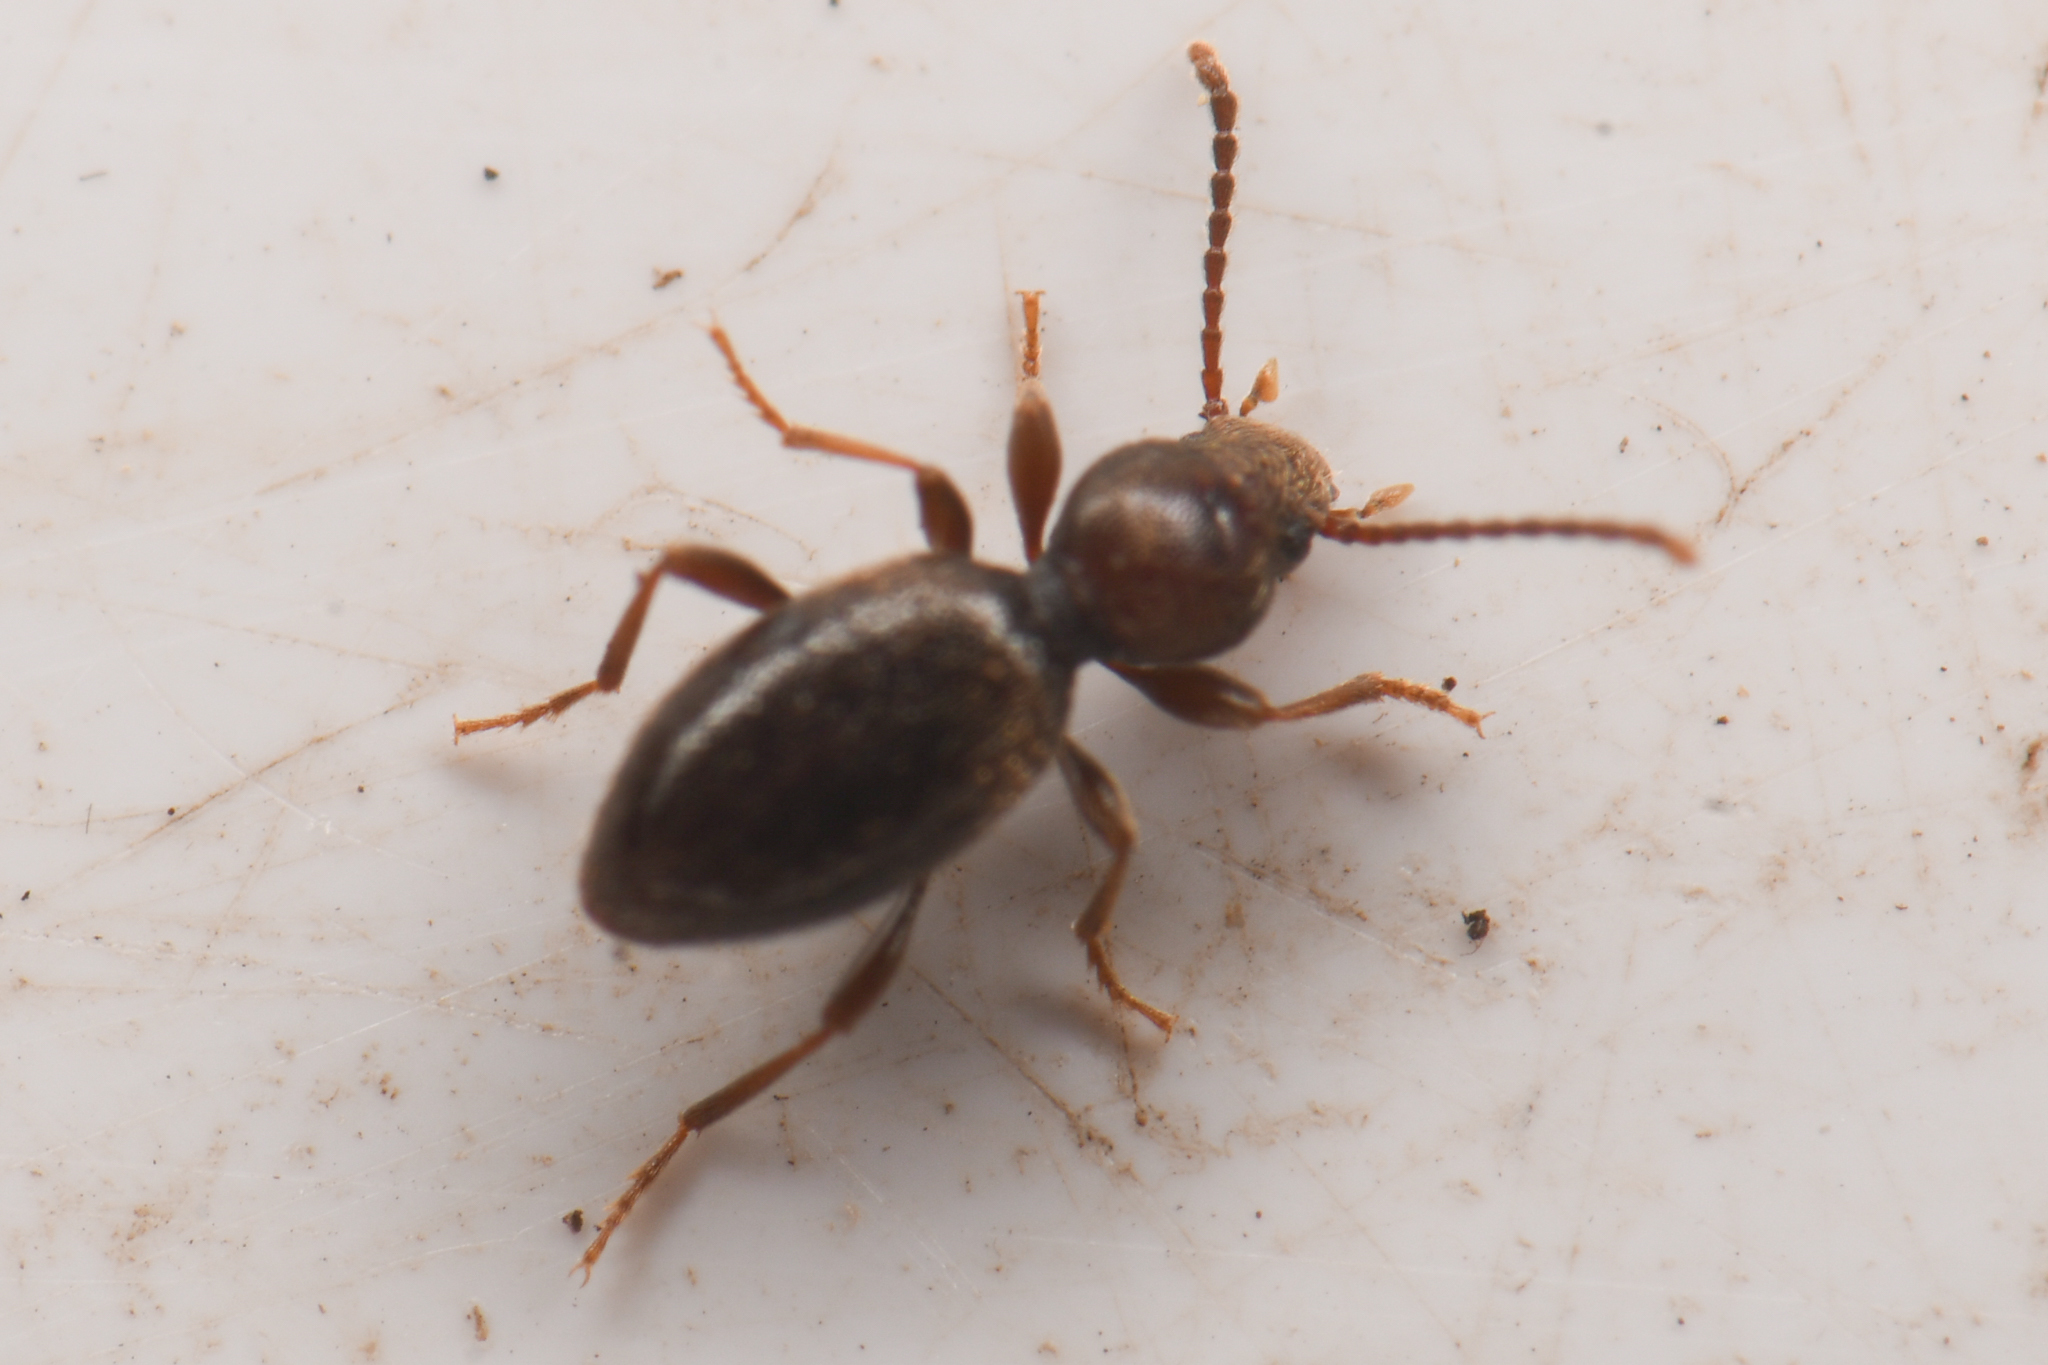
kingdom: Animalia
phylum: Arthropoda
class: Insecta
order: Coleoptera
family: Tenebrionidae
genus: Apocrypha
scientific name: Apocrypha anthicoides
